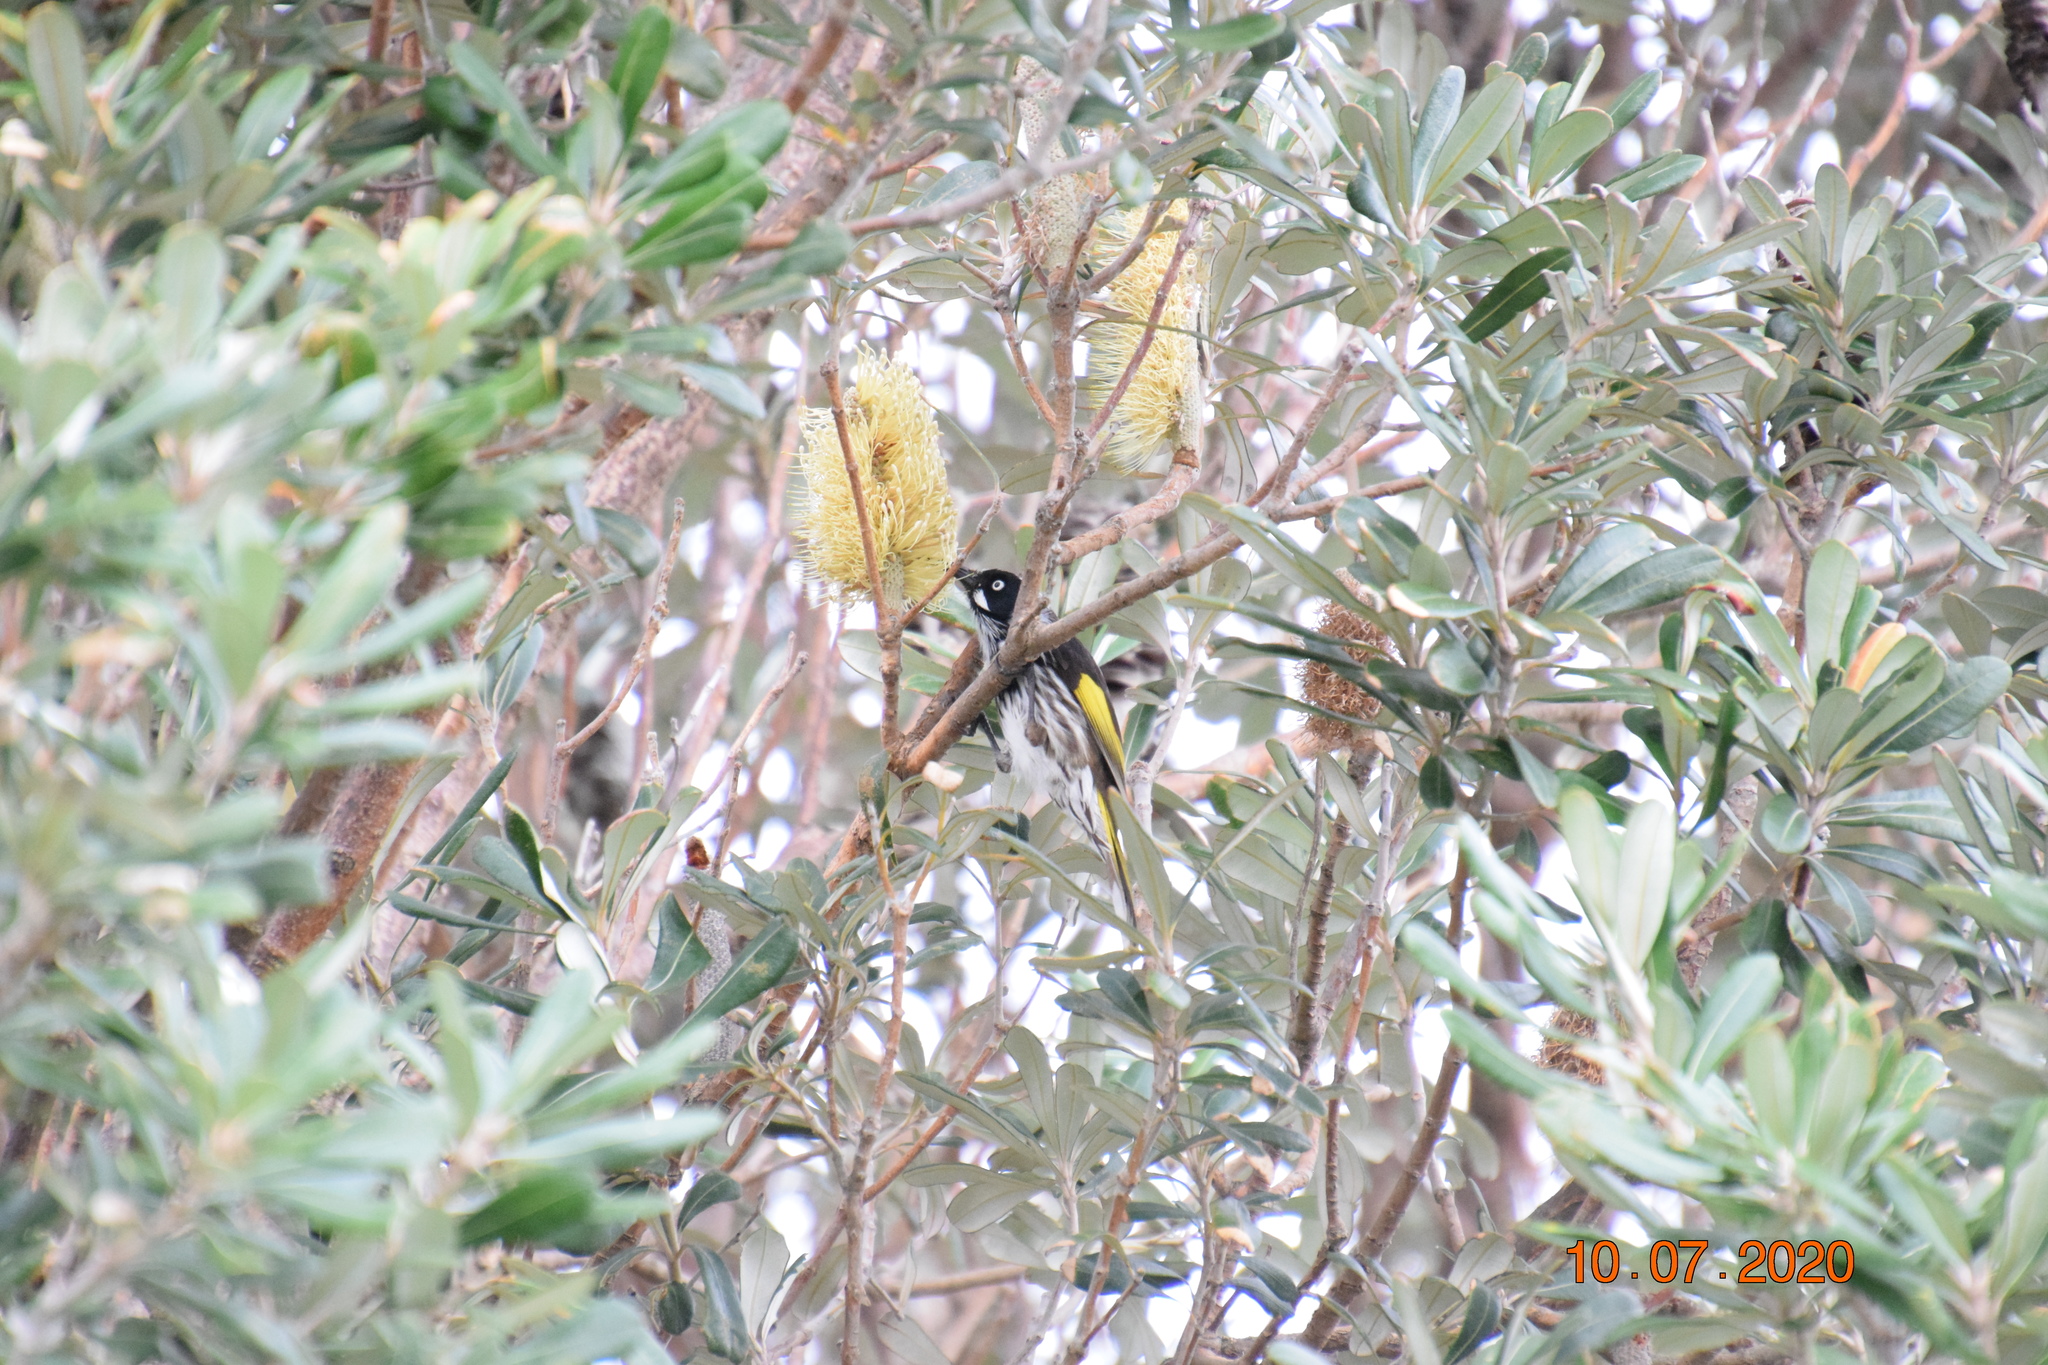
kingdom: Animalia
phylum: Chordata
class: Aves
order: Passeriformes
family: Meliphagidae
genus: Phylidonyris
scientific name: Phylidonyris novaehollandiae
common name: New holland honeyeater
